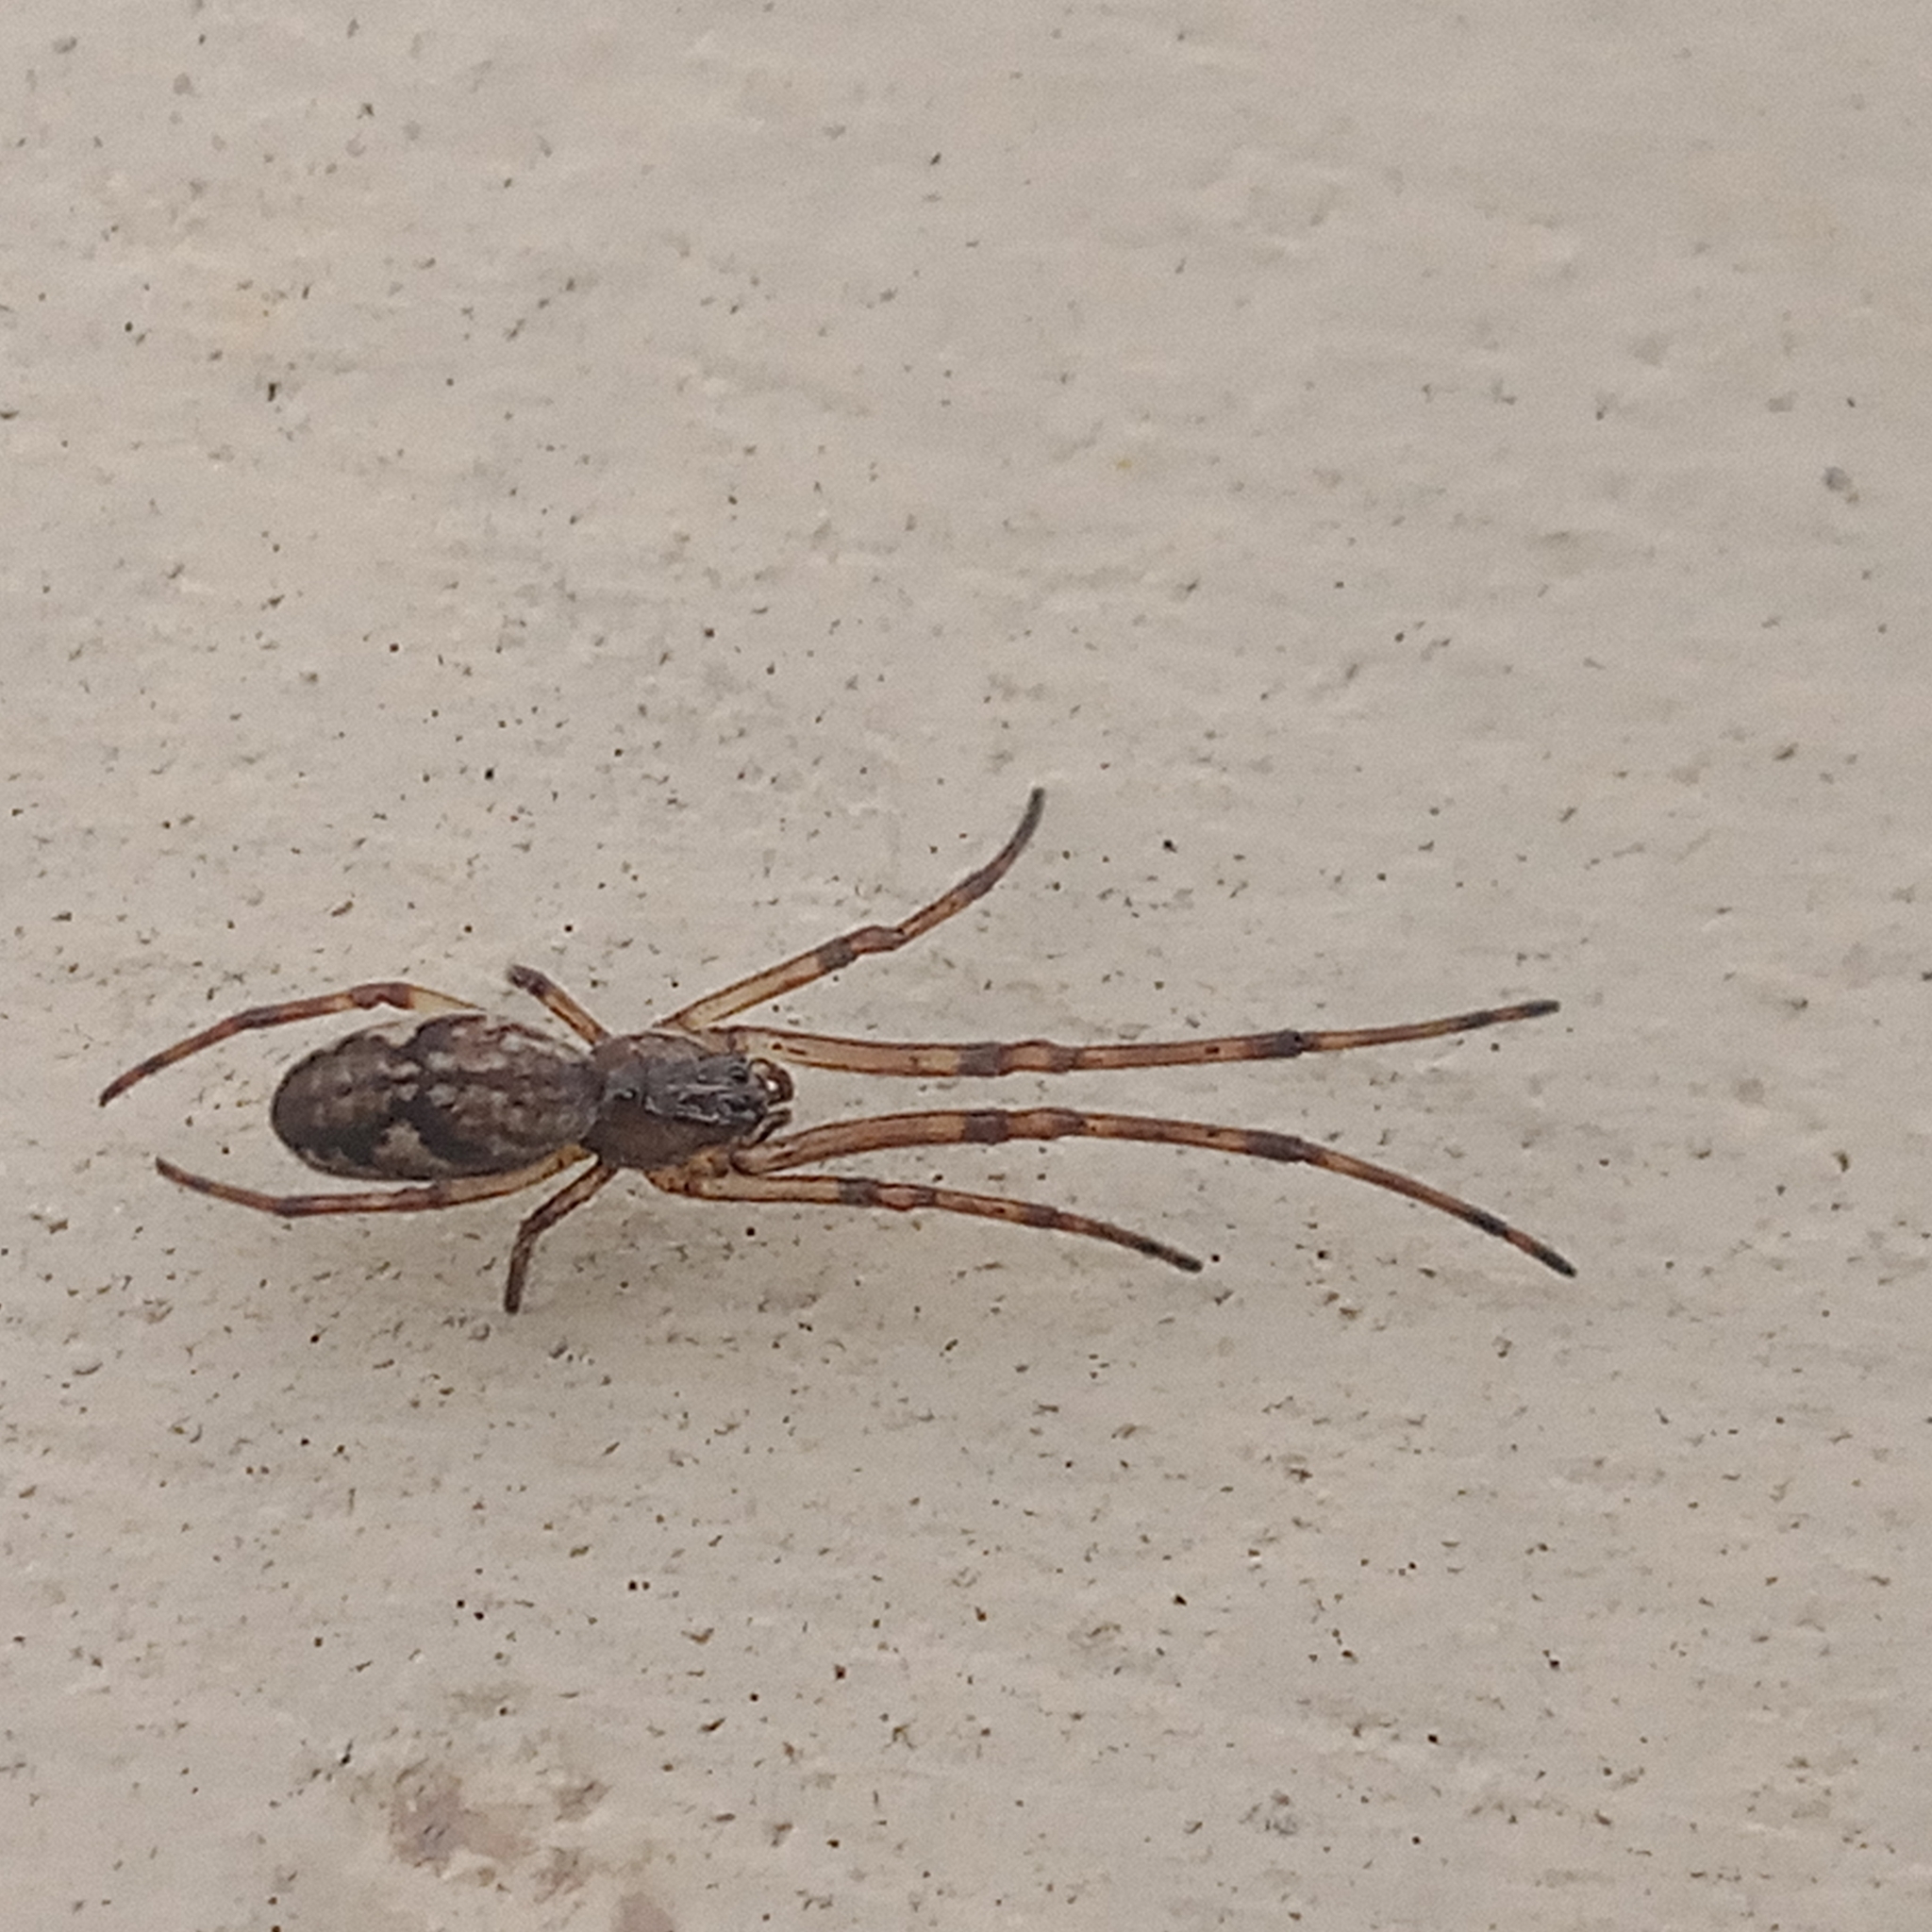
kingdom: Animalia
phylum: Arthropoda
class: Arachnida
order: Araneae
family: Tetragnathidae
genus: Tetragnatha
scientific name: Tetragnatha
